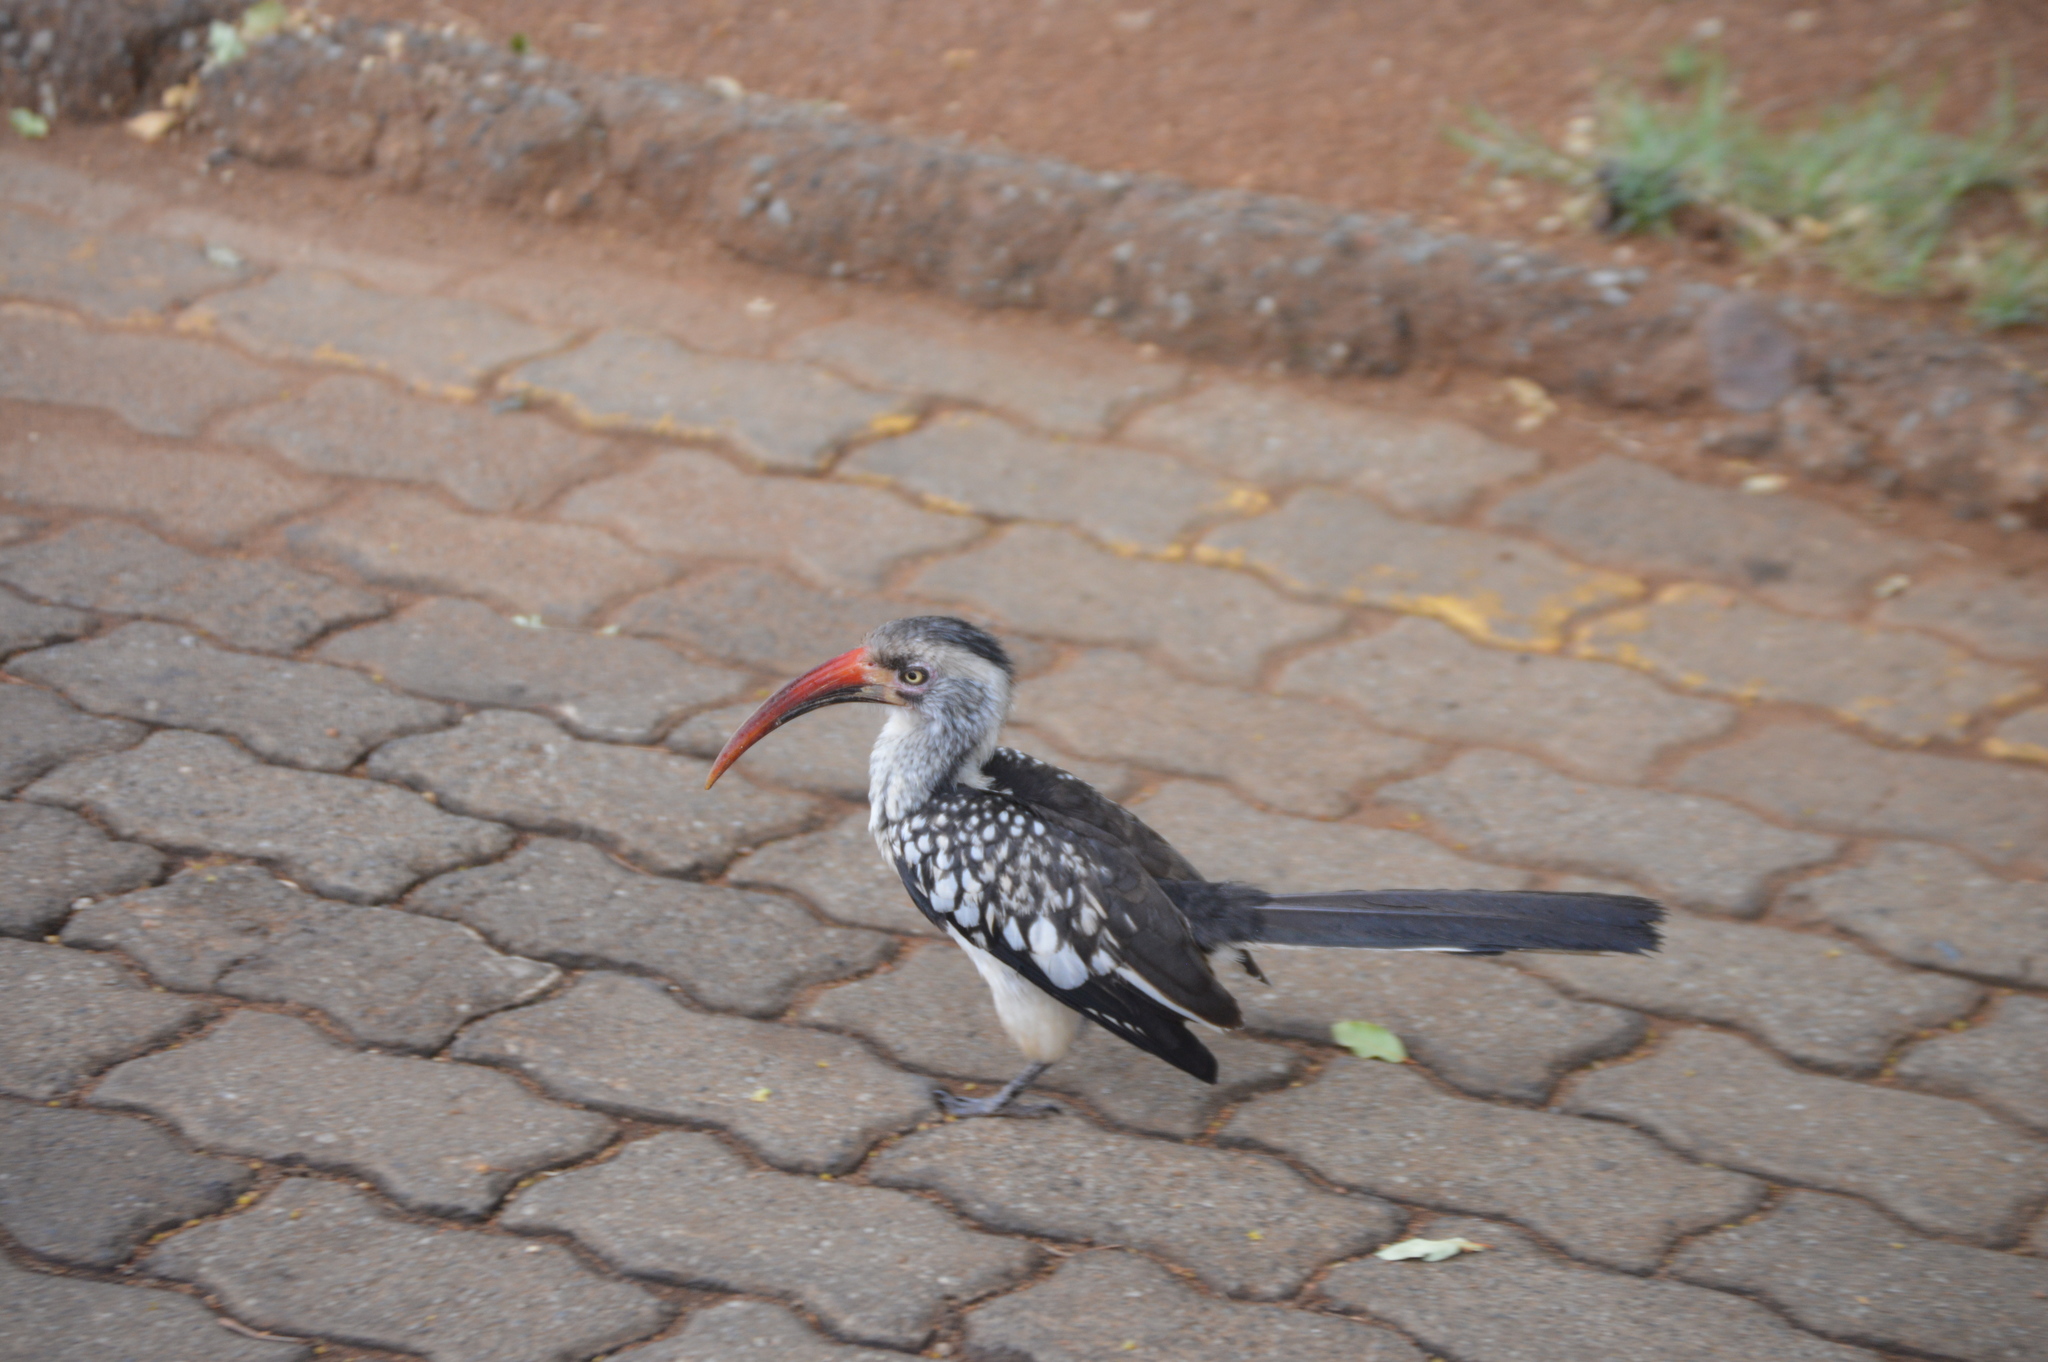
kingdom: Animalia
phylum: Chordata
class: Aves
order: Bucerotiformes
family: Bucerotidae
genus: Tockus
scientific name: Tockus rufirostris
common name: Southern red-billed hornbill
